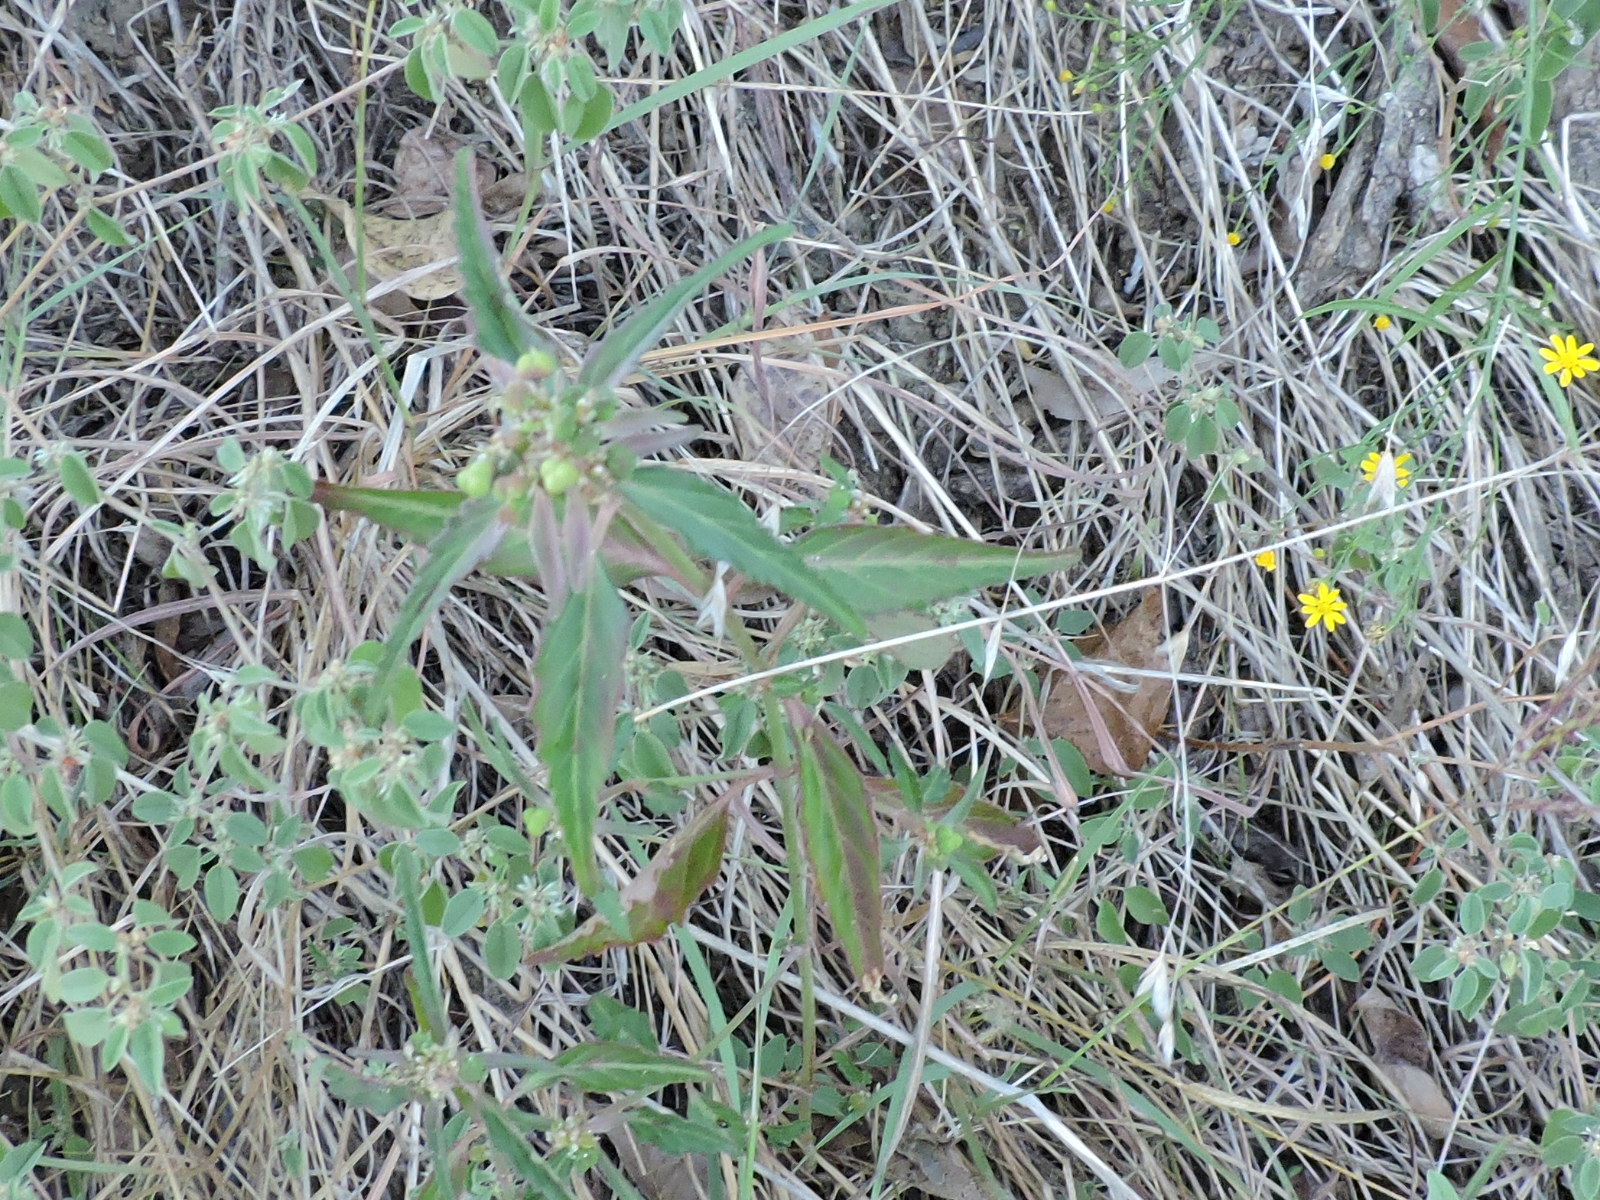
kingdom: Plantae
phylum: Tracheophyta
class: Magnoliopsida
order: Malpighiales
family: Euphorbiaceae
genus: Euphorbia
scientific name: Euphorbia dentata
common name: Dentate spurge
